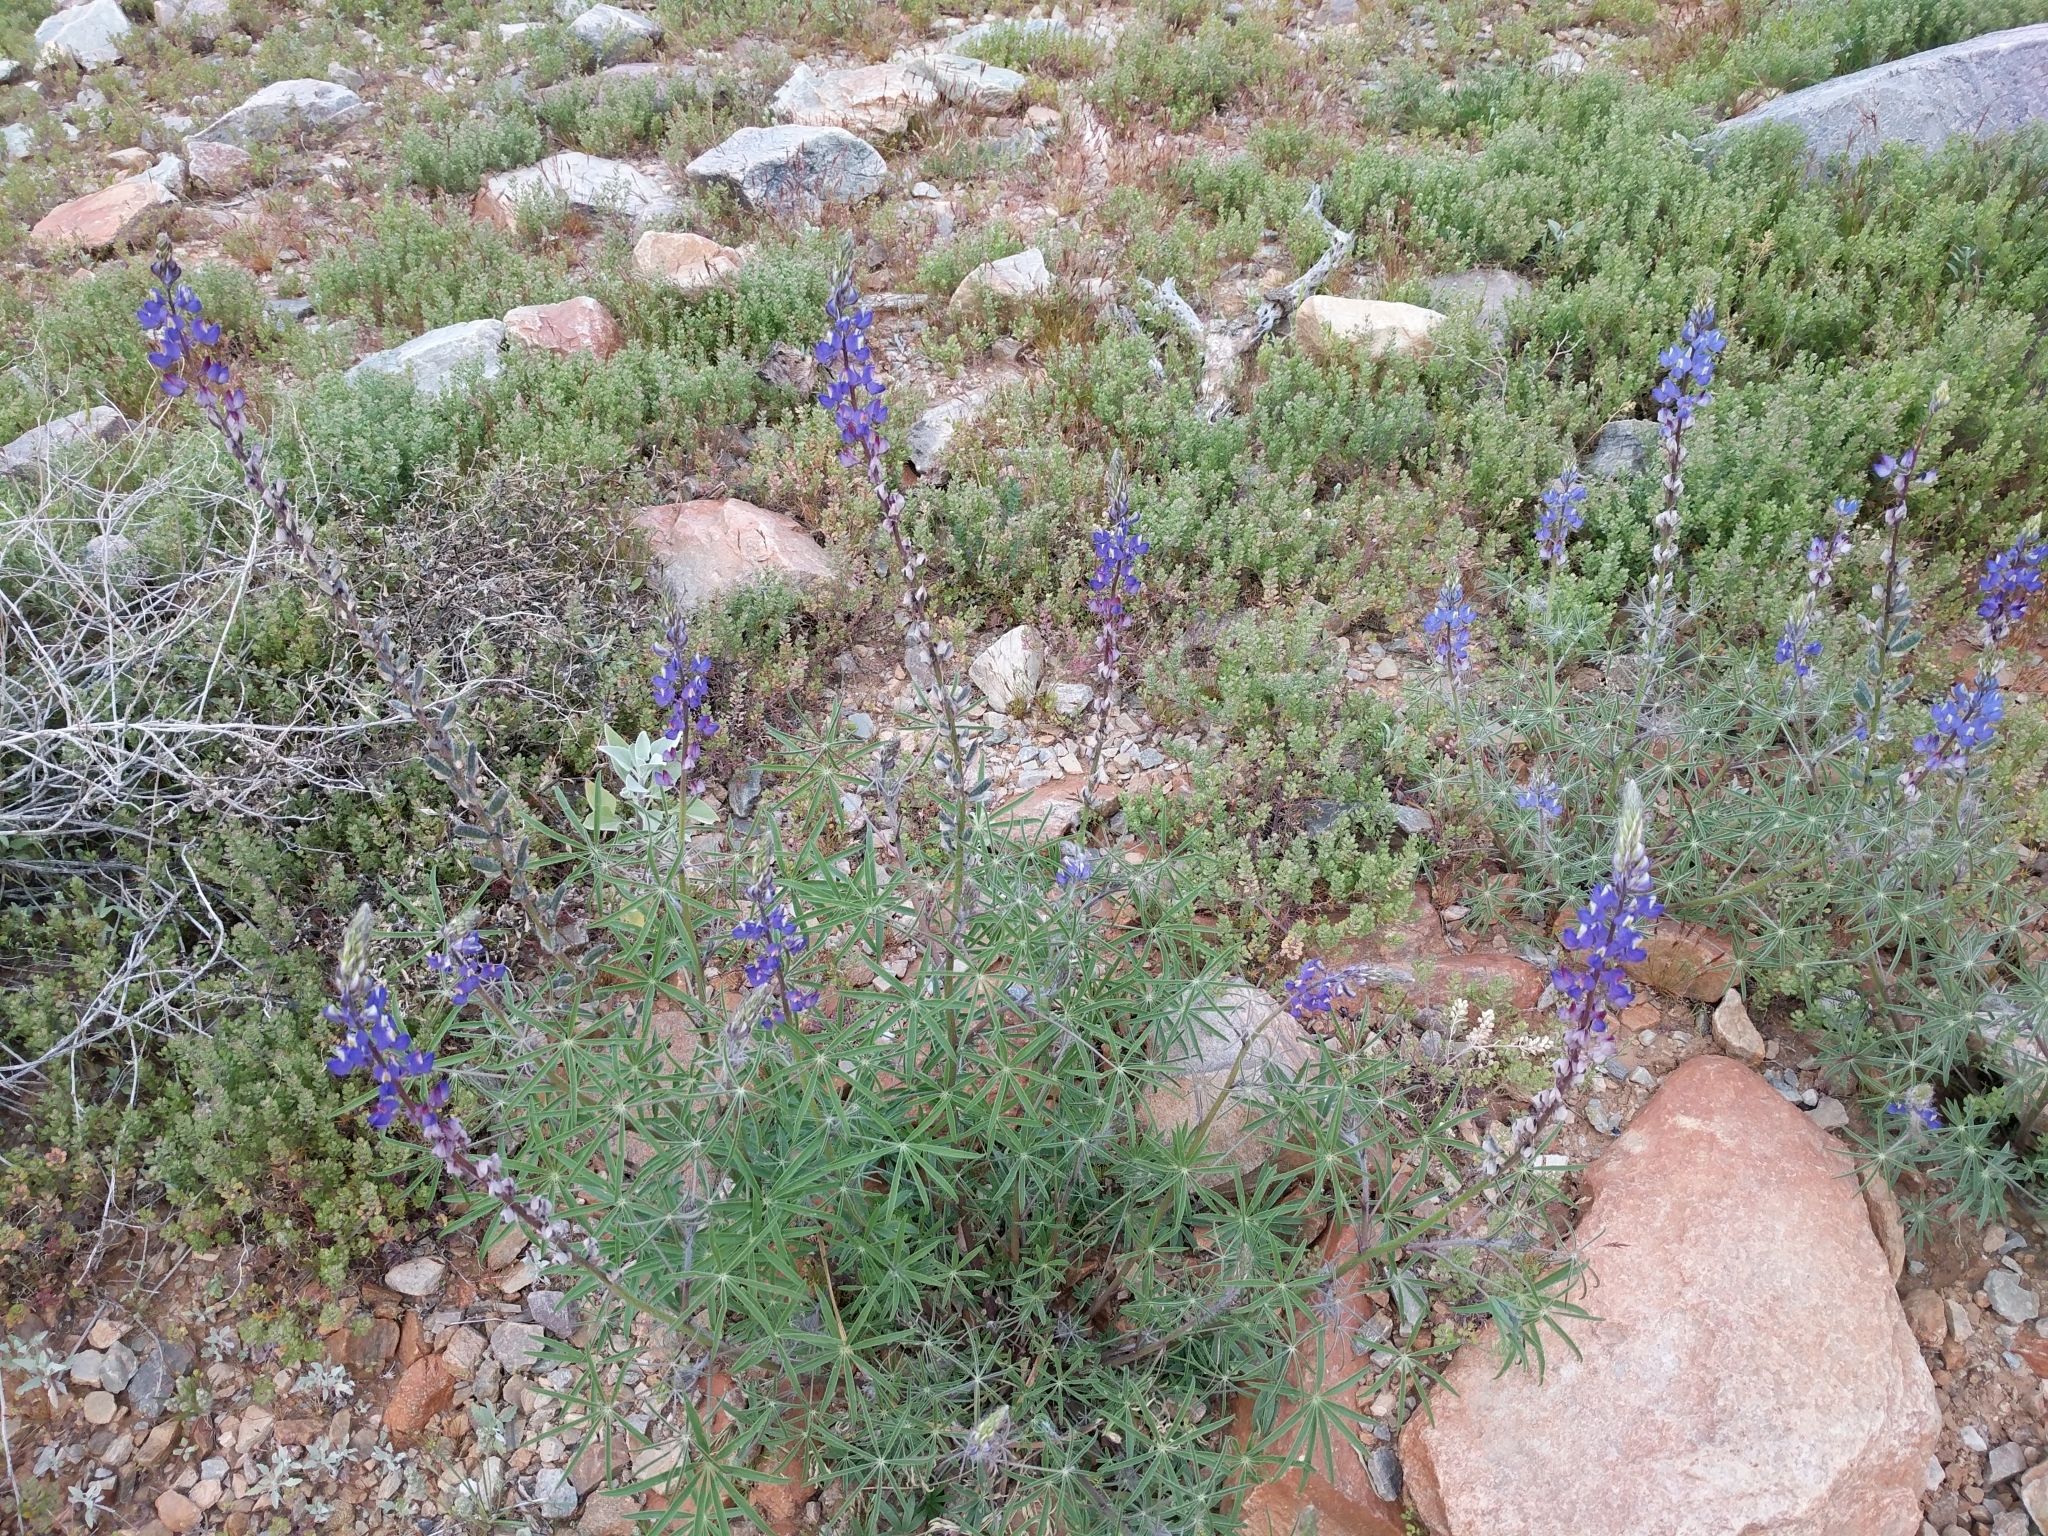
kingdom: Plantae
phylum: Tracheophyta
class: Magnoliopsida
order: Fabales
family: Fabaceae
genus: Lupinus
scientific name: Lupinus sparsiflorus
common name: Coulter's lupine
